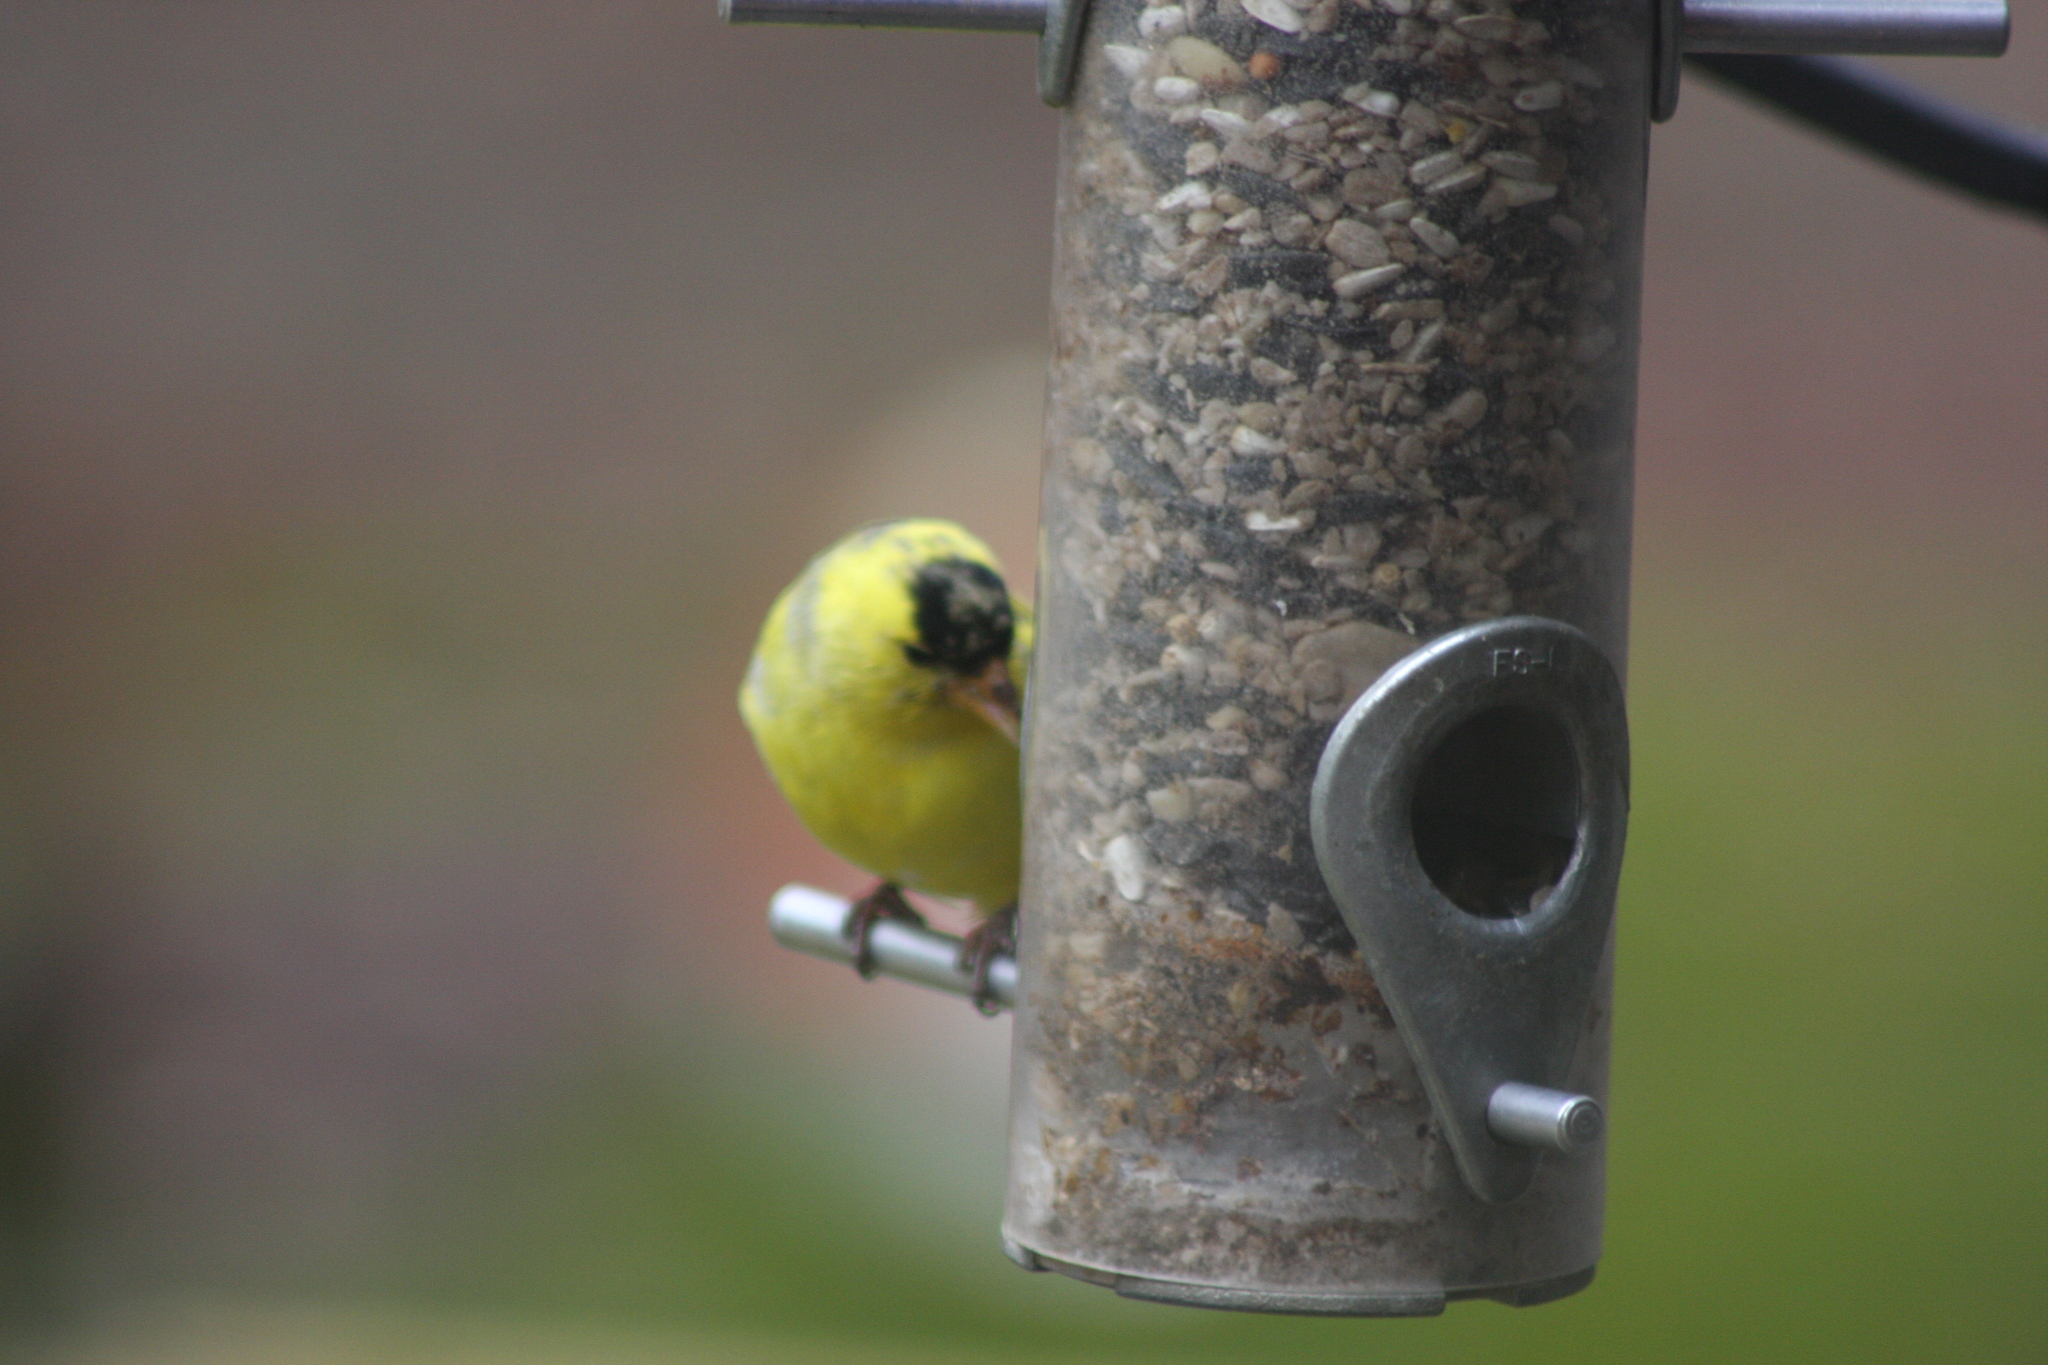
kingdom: Animalia
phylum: Chordata
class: Aves
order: Passeriformes
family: Fringillidae
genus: Spinus
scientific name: Spinus tristis
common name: American goldfinch
